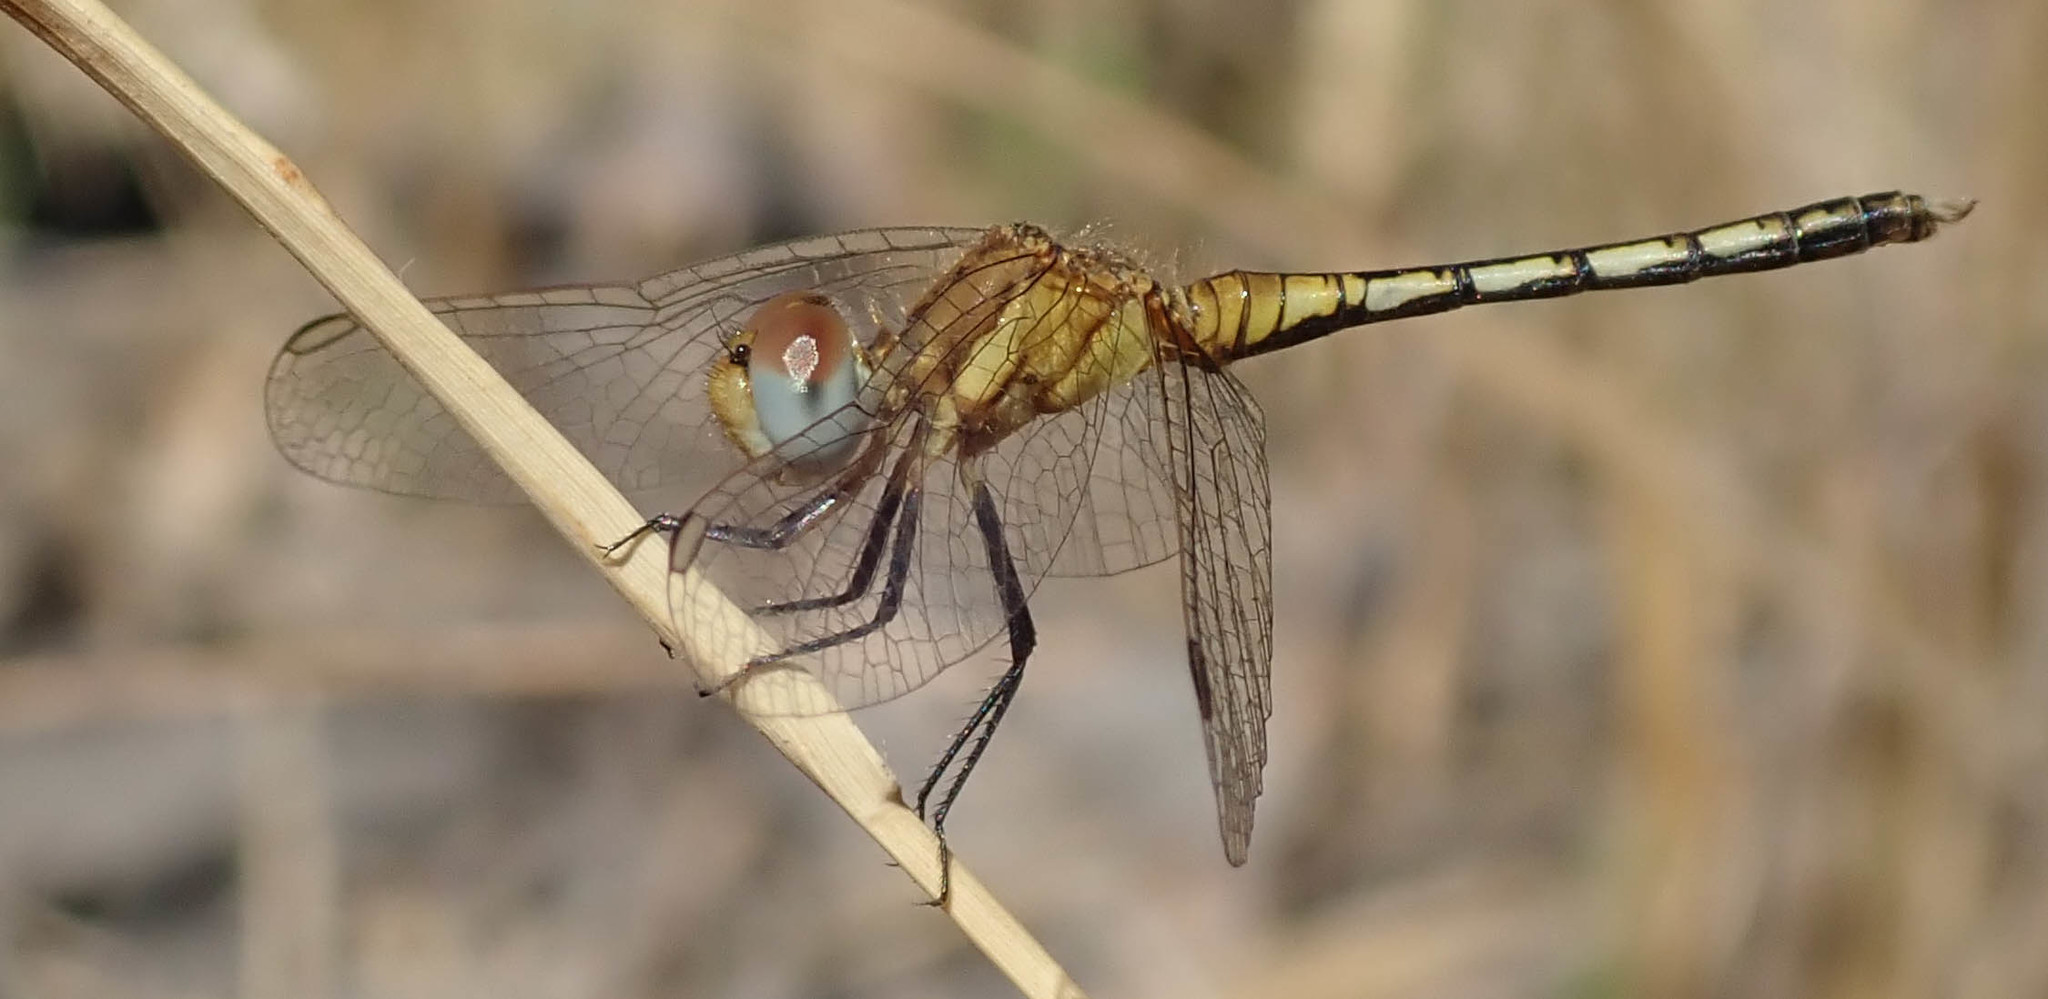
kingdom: Animalia
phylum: Arthropoda
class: Insecta
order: Odonata
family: Libellulidae
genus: Diplacodes
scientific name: Diplacodes lefebvrii
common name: Black percher
